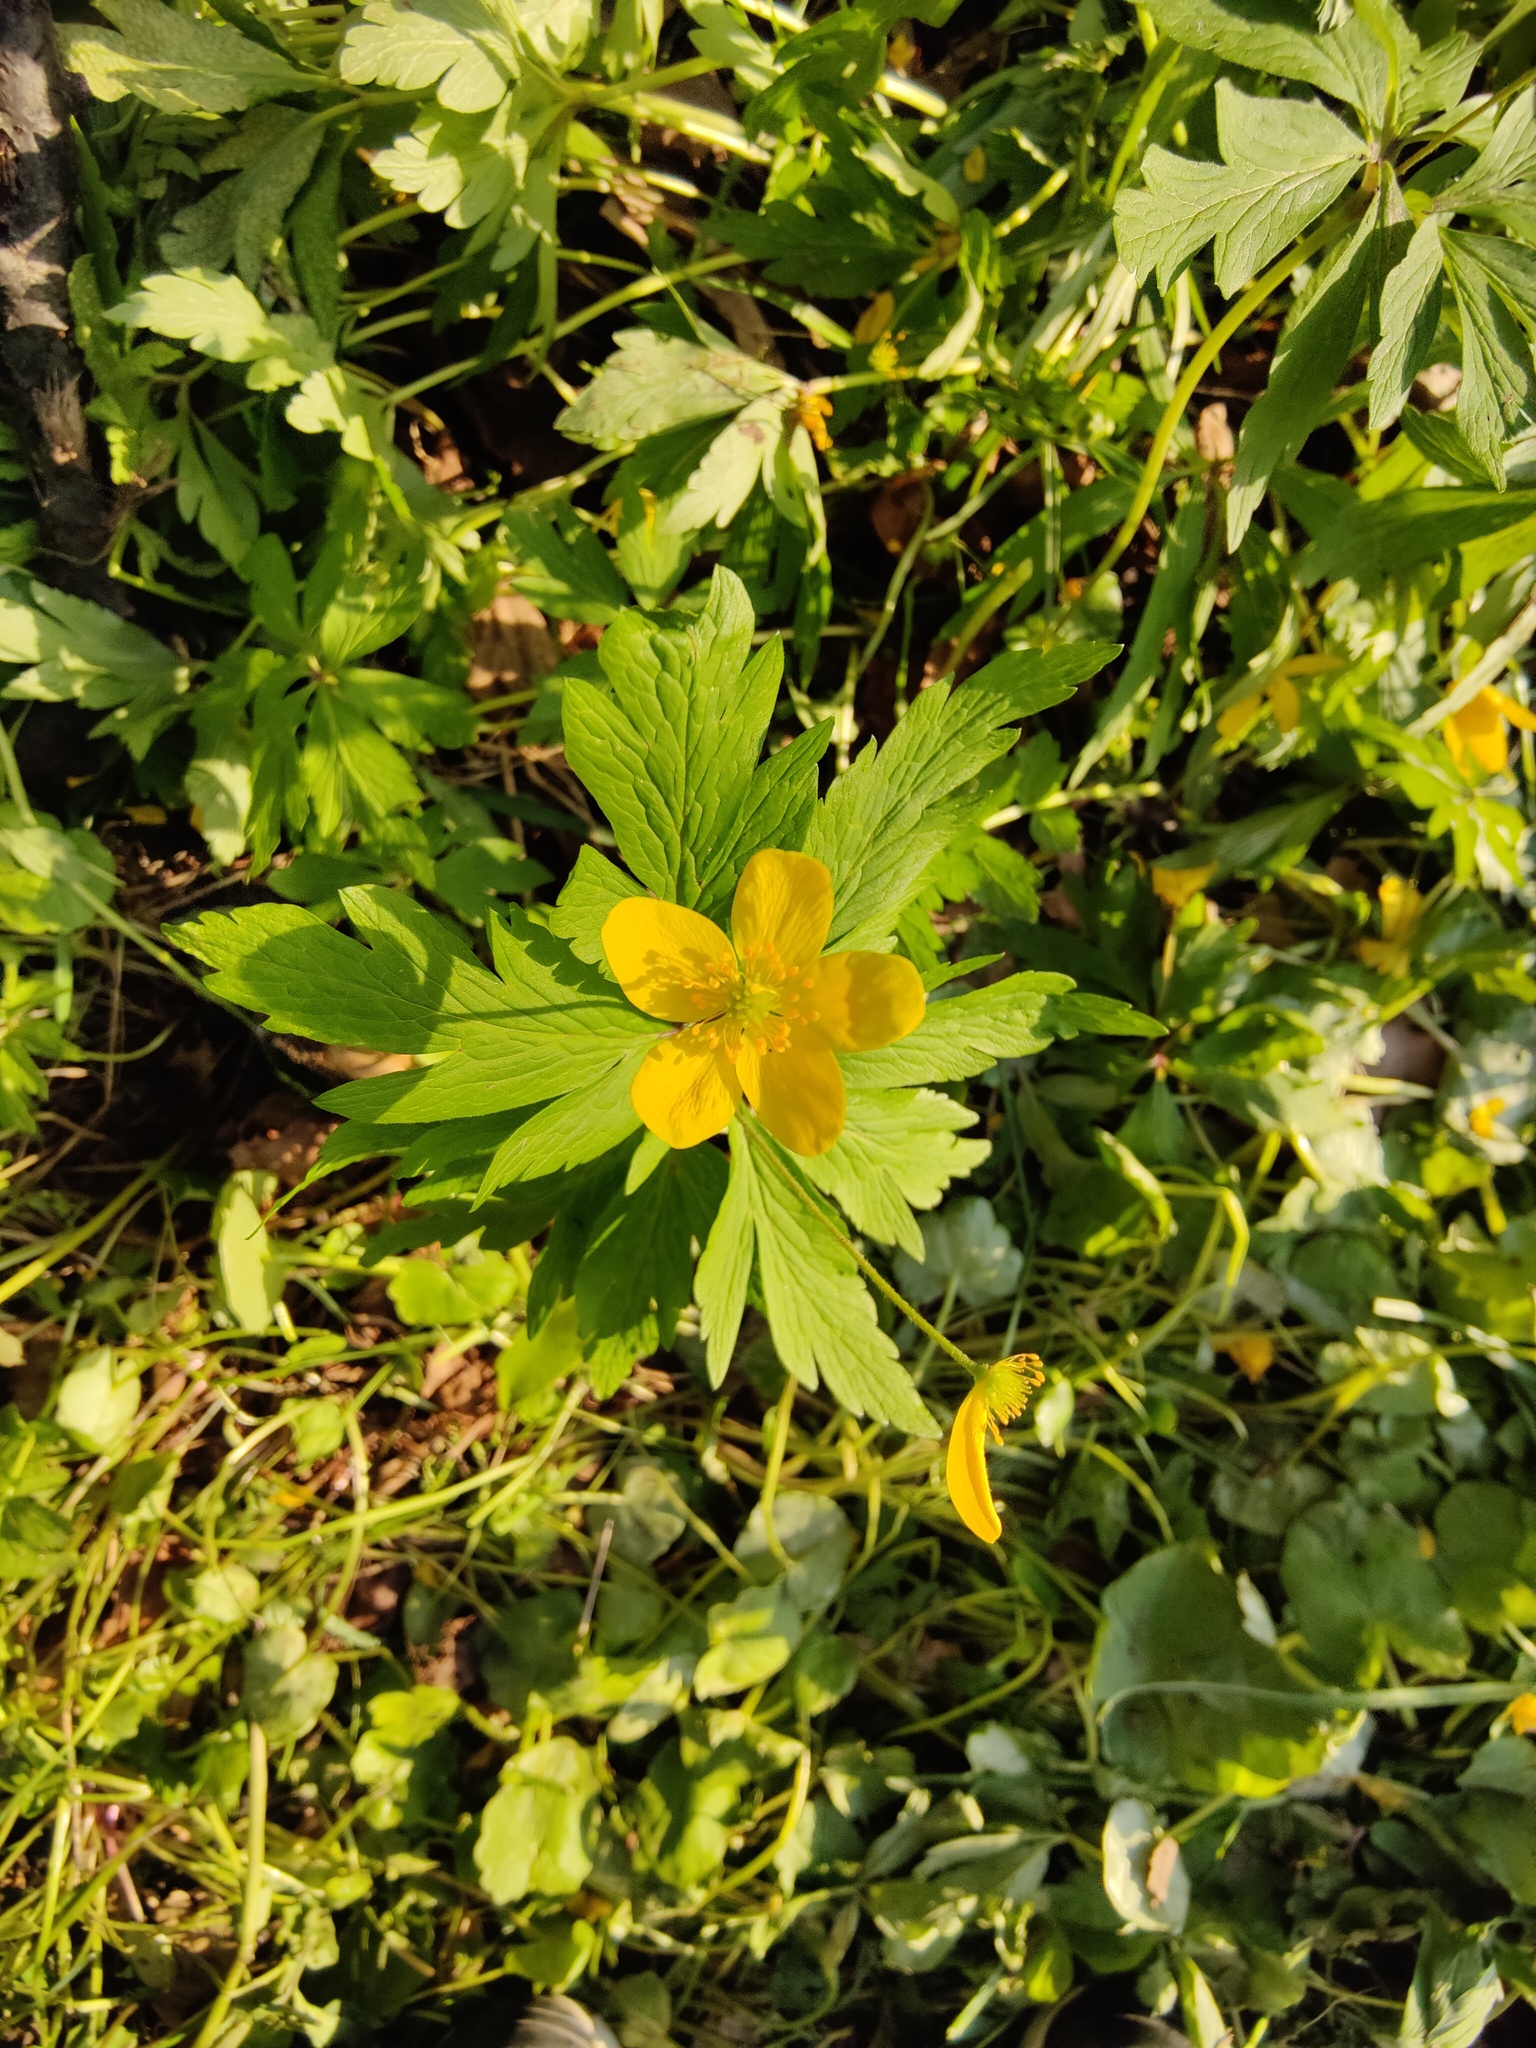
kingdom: Plantae
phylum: Tracheophyta
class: Magnoliopsida
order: Ranunculales
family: Ranunculaceae
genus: Anemone
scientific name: Anemone ranunculoides
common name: Yellow anemone
